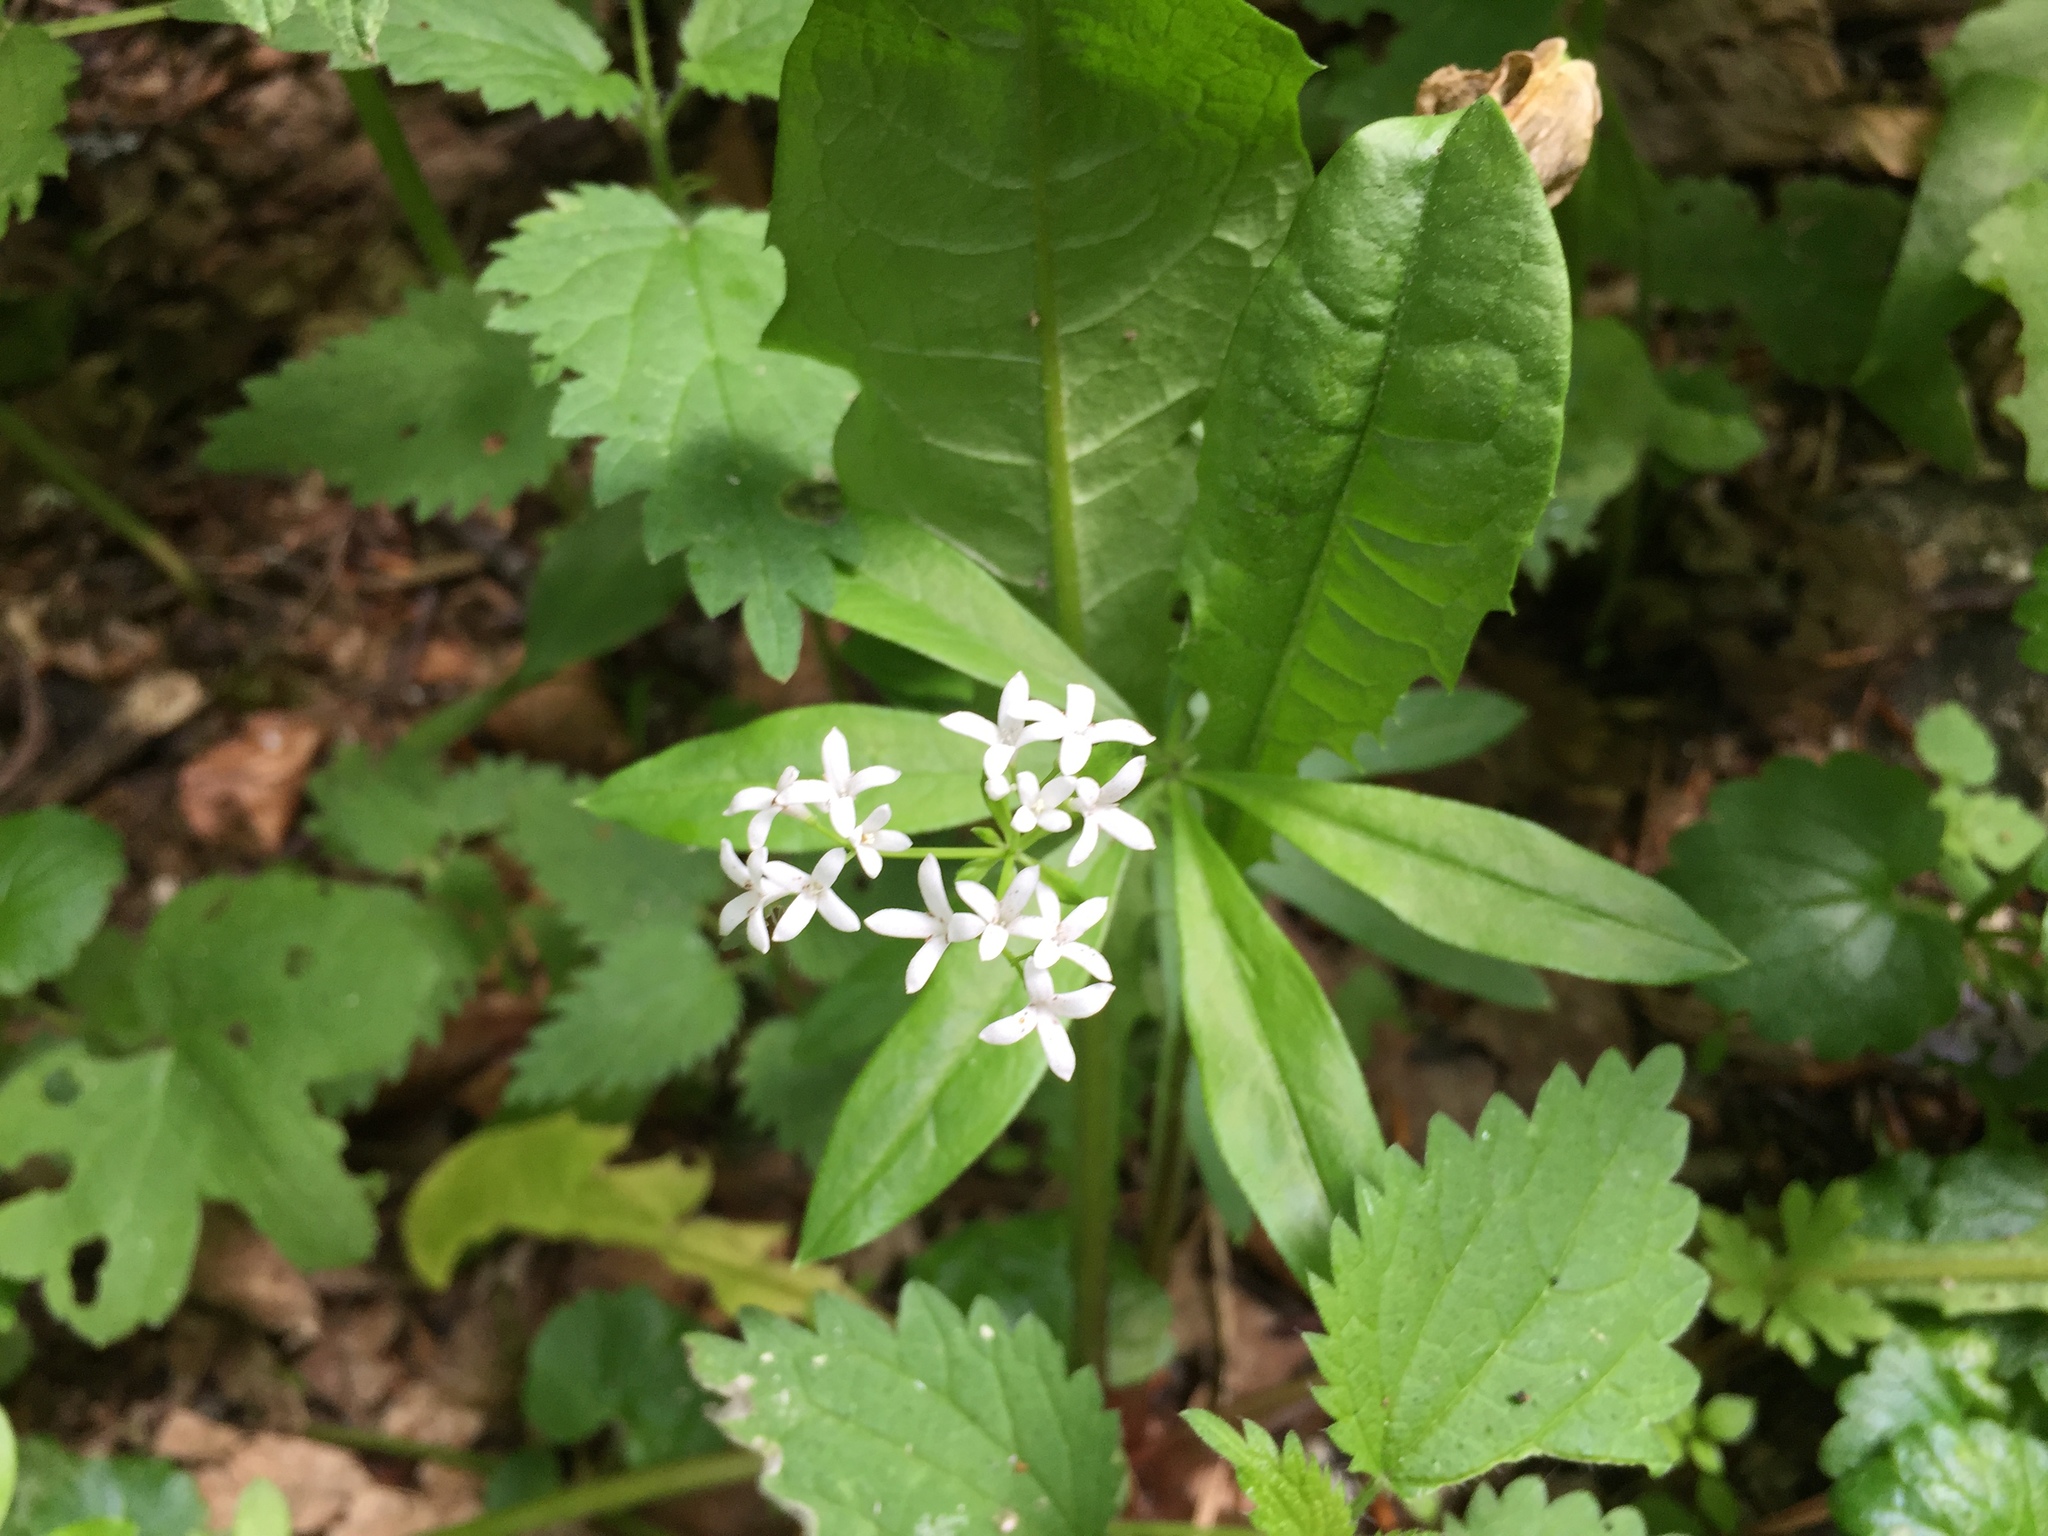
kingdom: Plantae
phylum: Tracheophyta
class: Magnoliopsida
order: Gentianales
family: Rubiaceae
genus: Galium
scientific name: Galium odoratum
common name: Sweet woodruff
